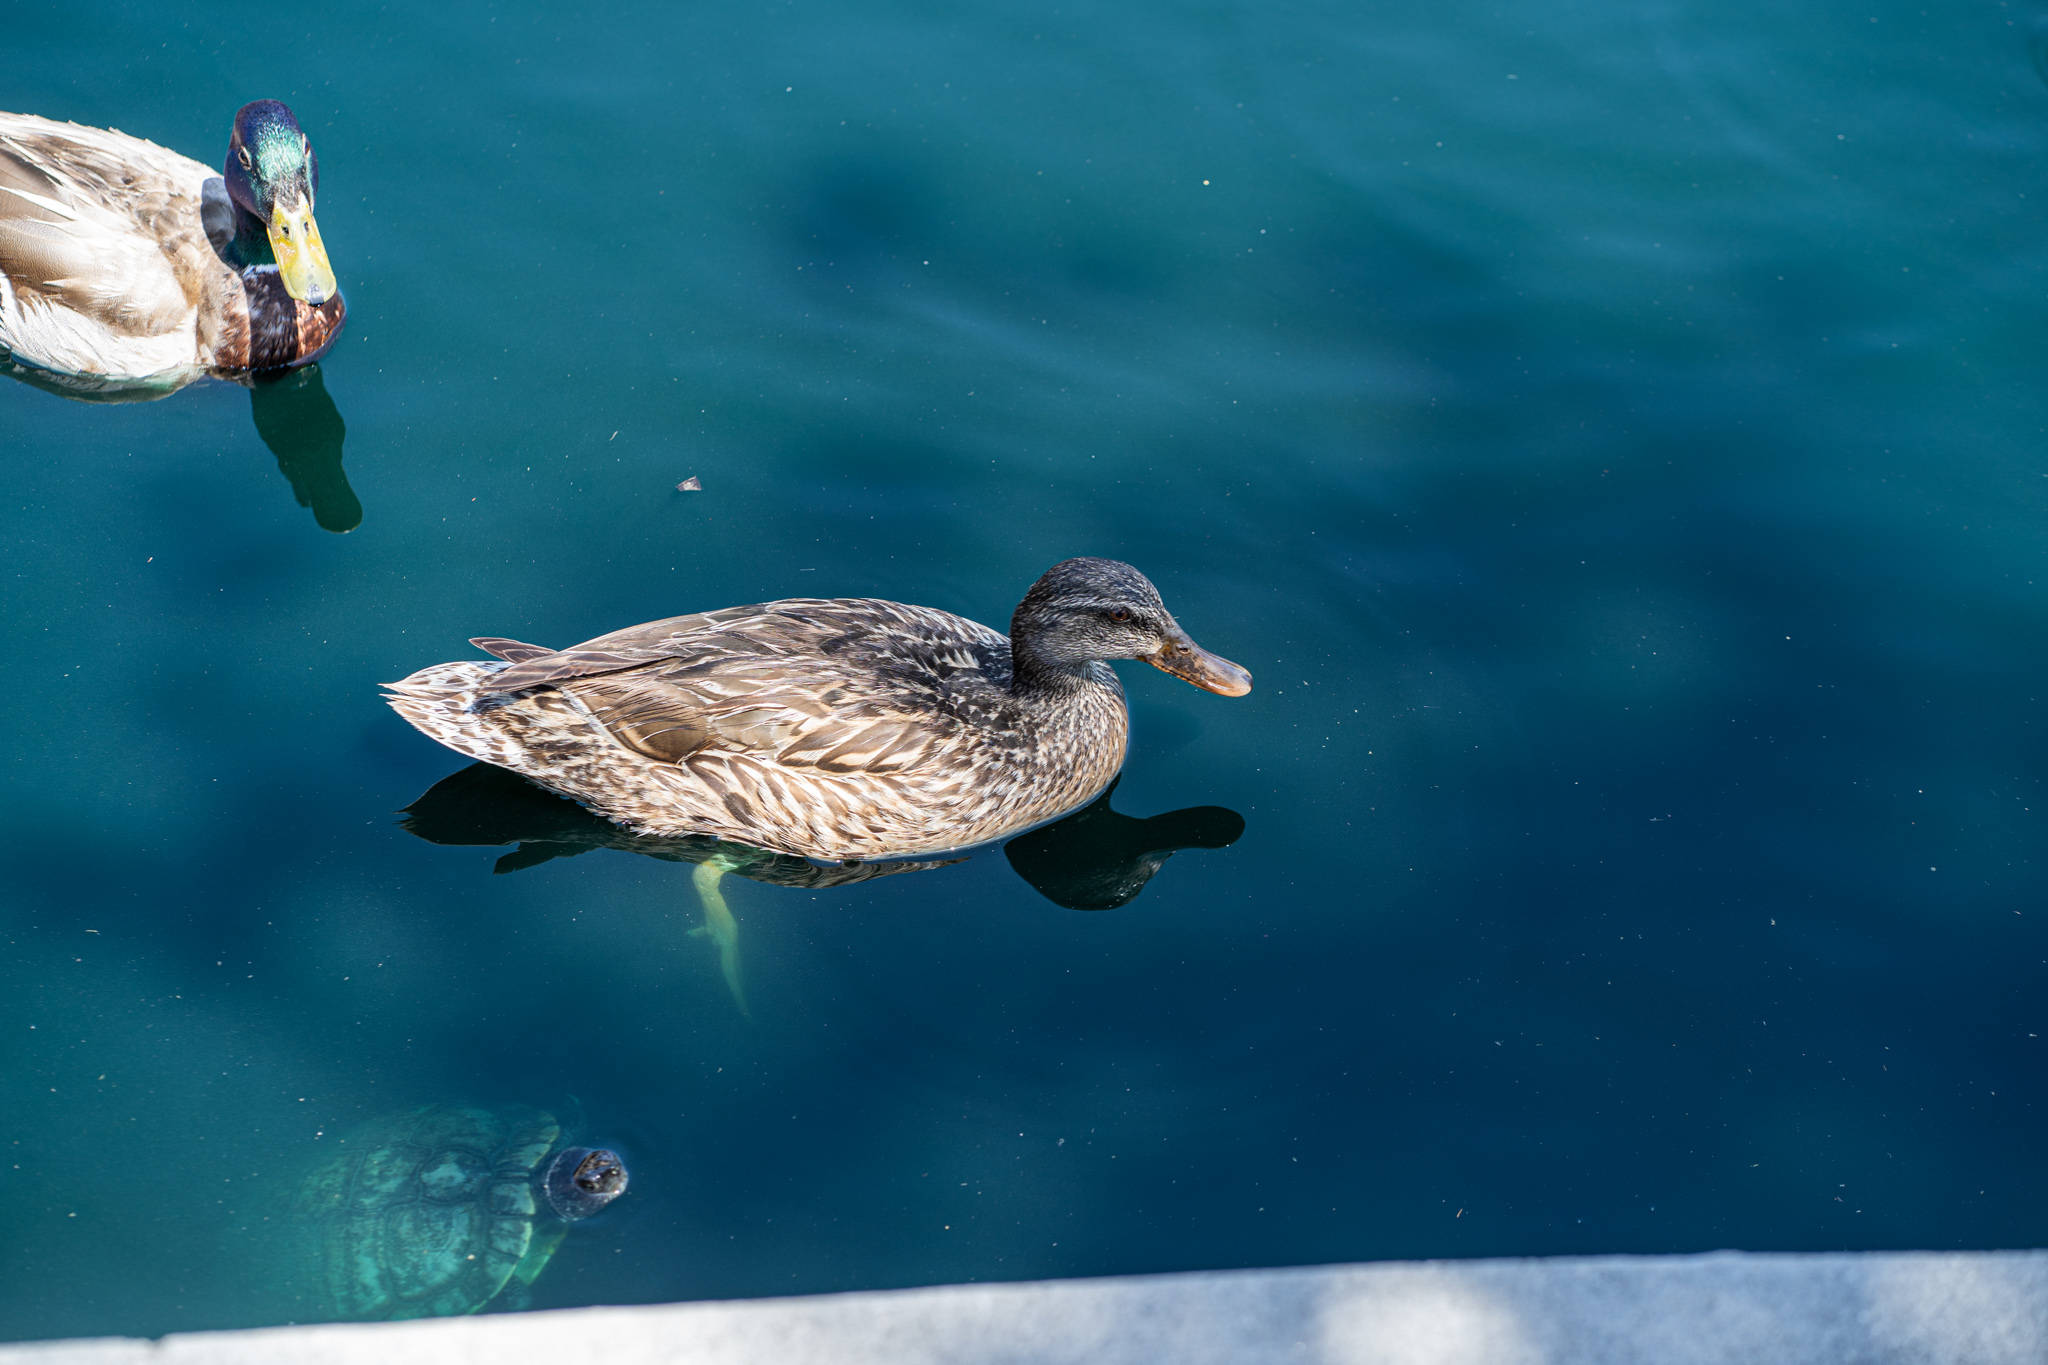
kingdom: Animalia
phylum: Chordata
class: Aves
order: Anseriformes
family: Anatidae
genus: Anas
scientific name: Anas platyrhynchos
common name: Mallard
